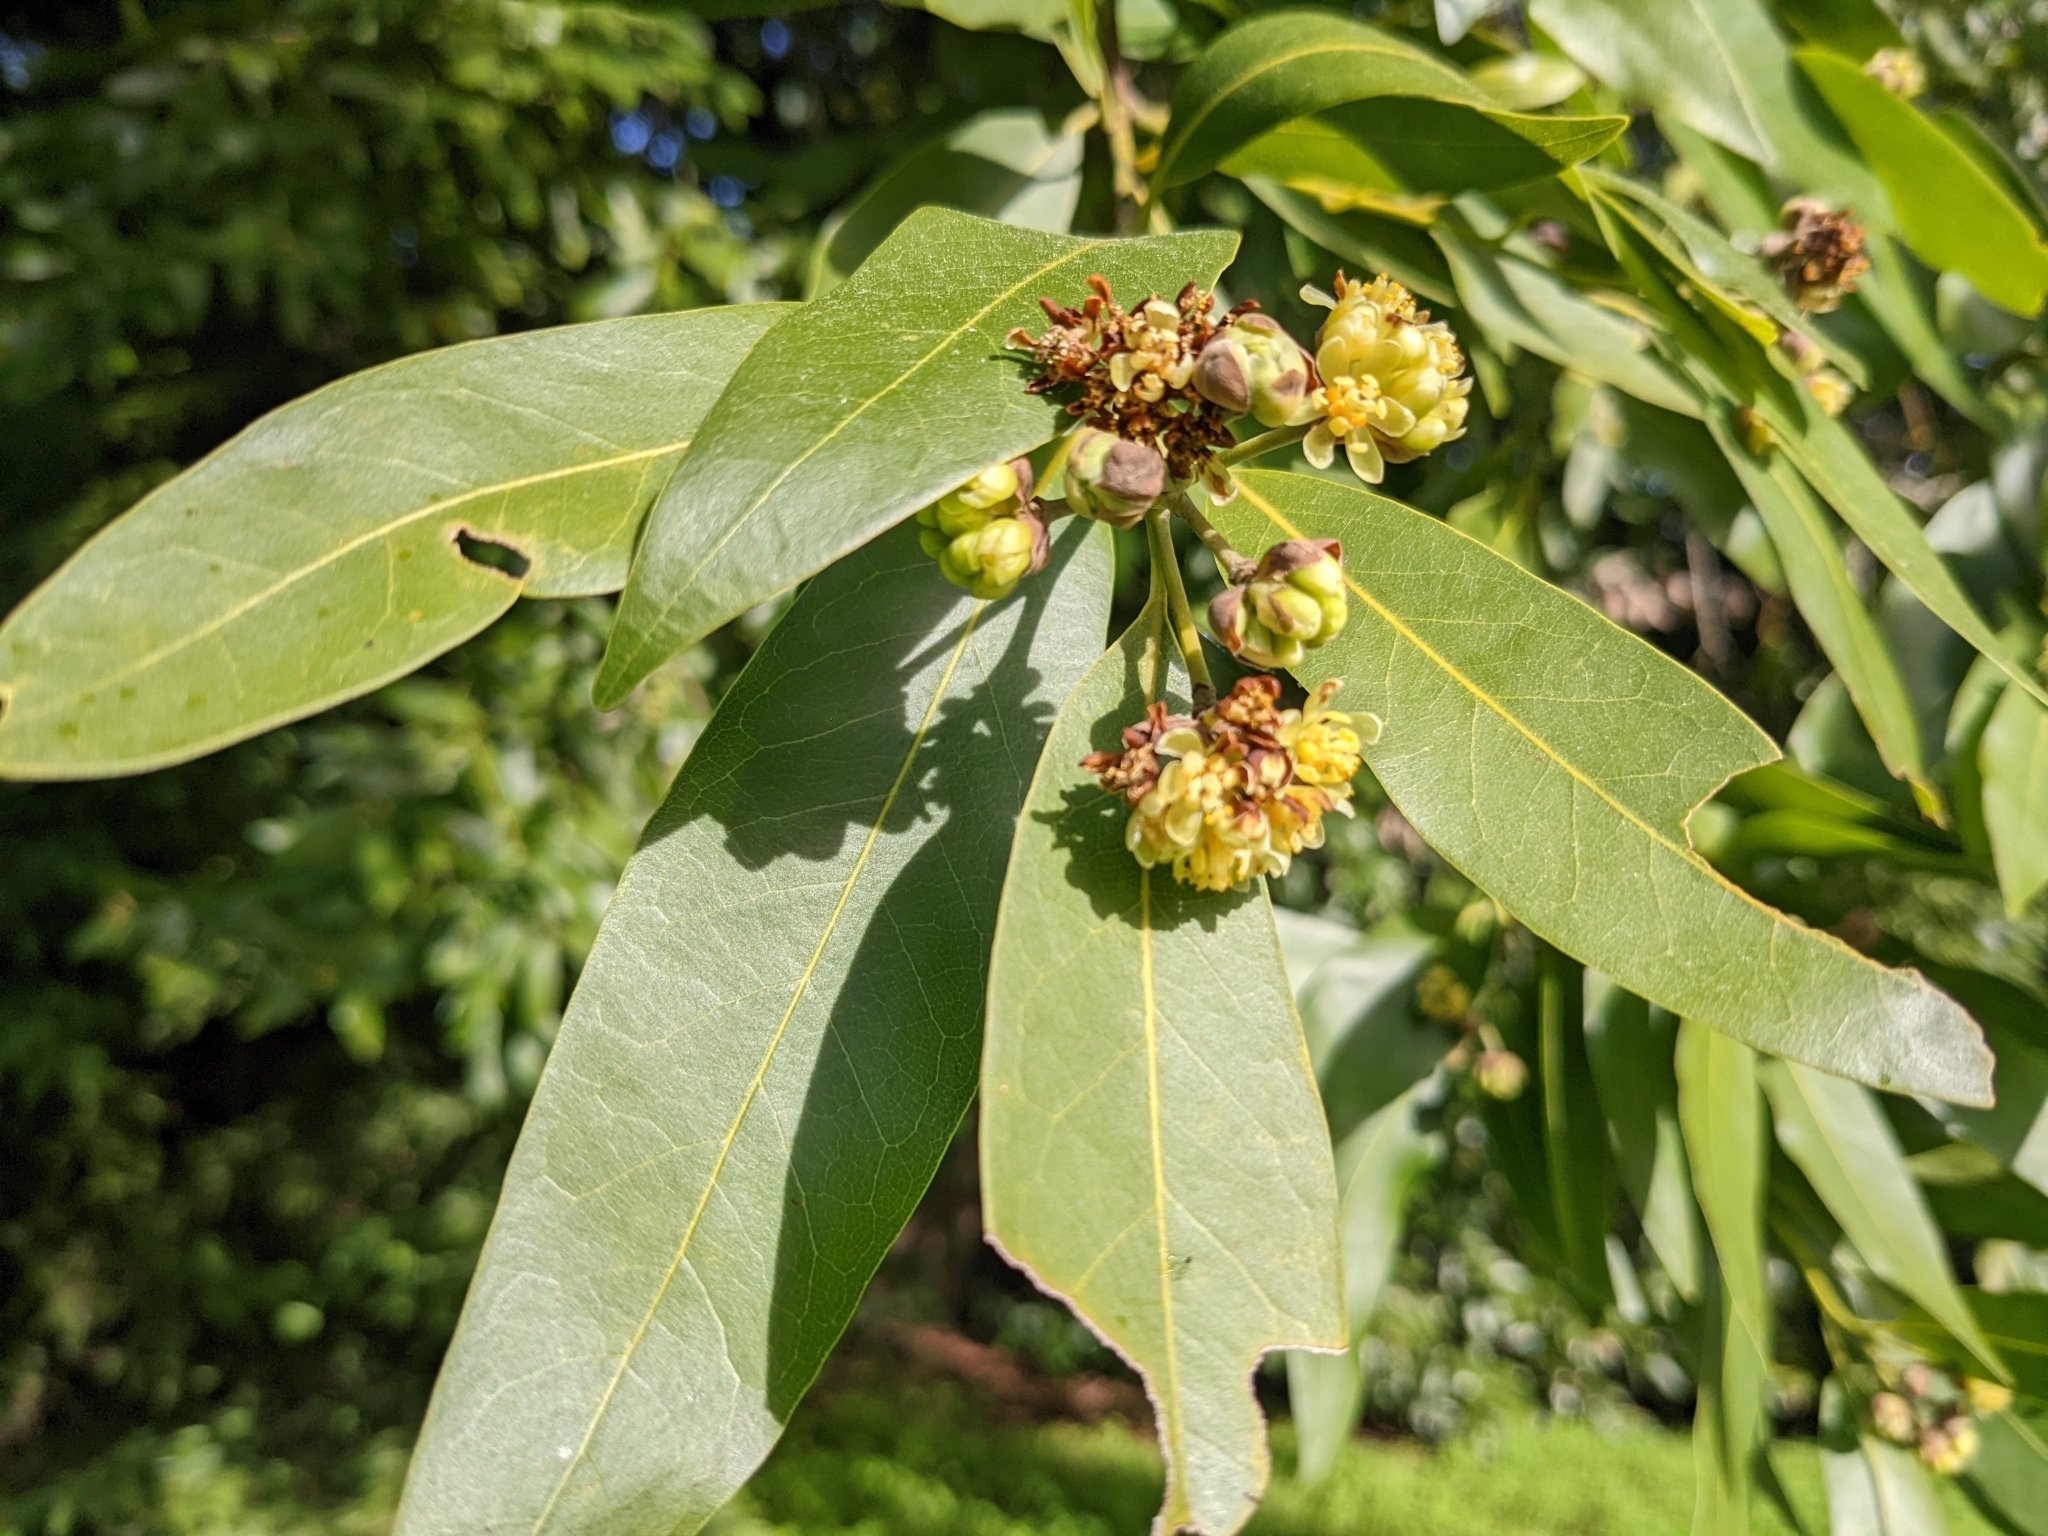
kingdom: Plantae
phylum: Tracheophyta
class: Magnoliopsida
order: Laurales
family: Lauraceae
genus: Umbellularia
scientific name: Umbellularia californica
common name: California bay
